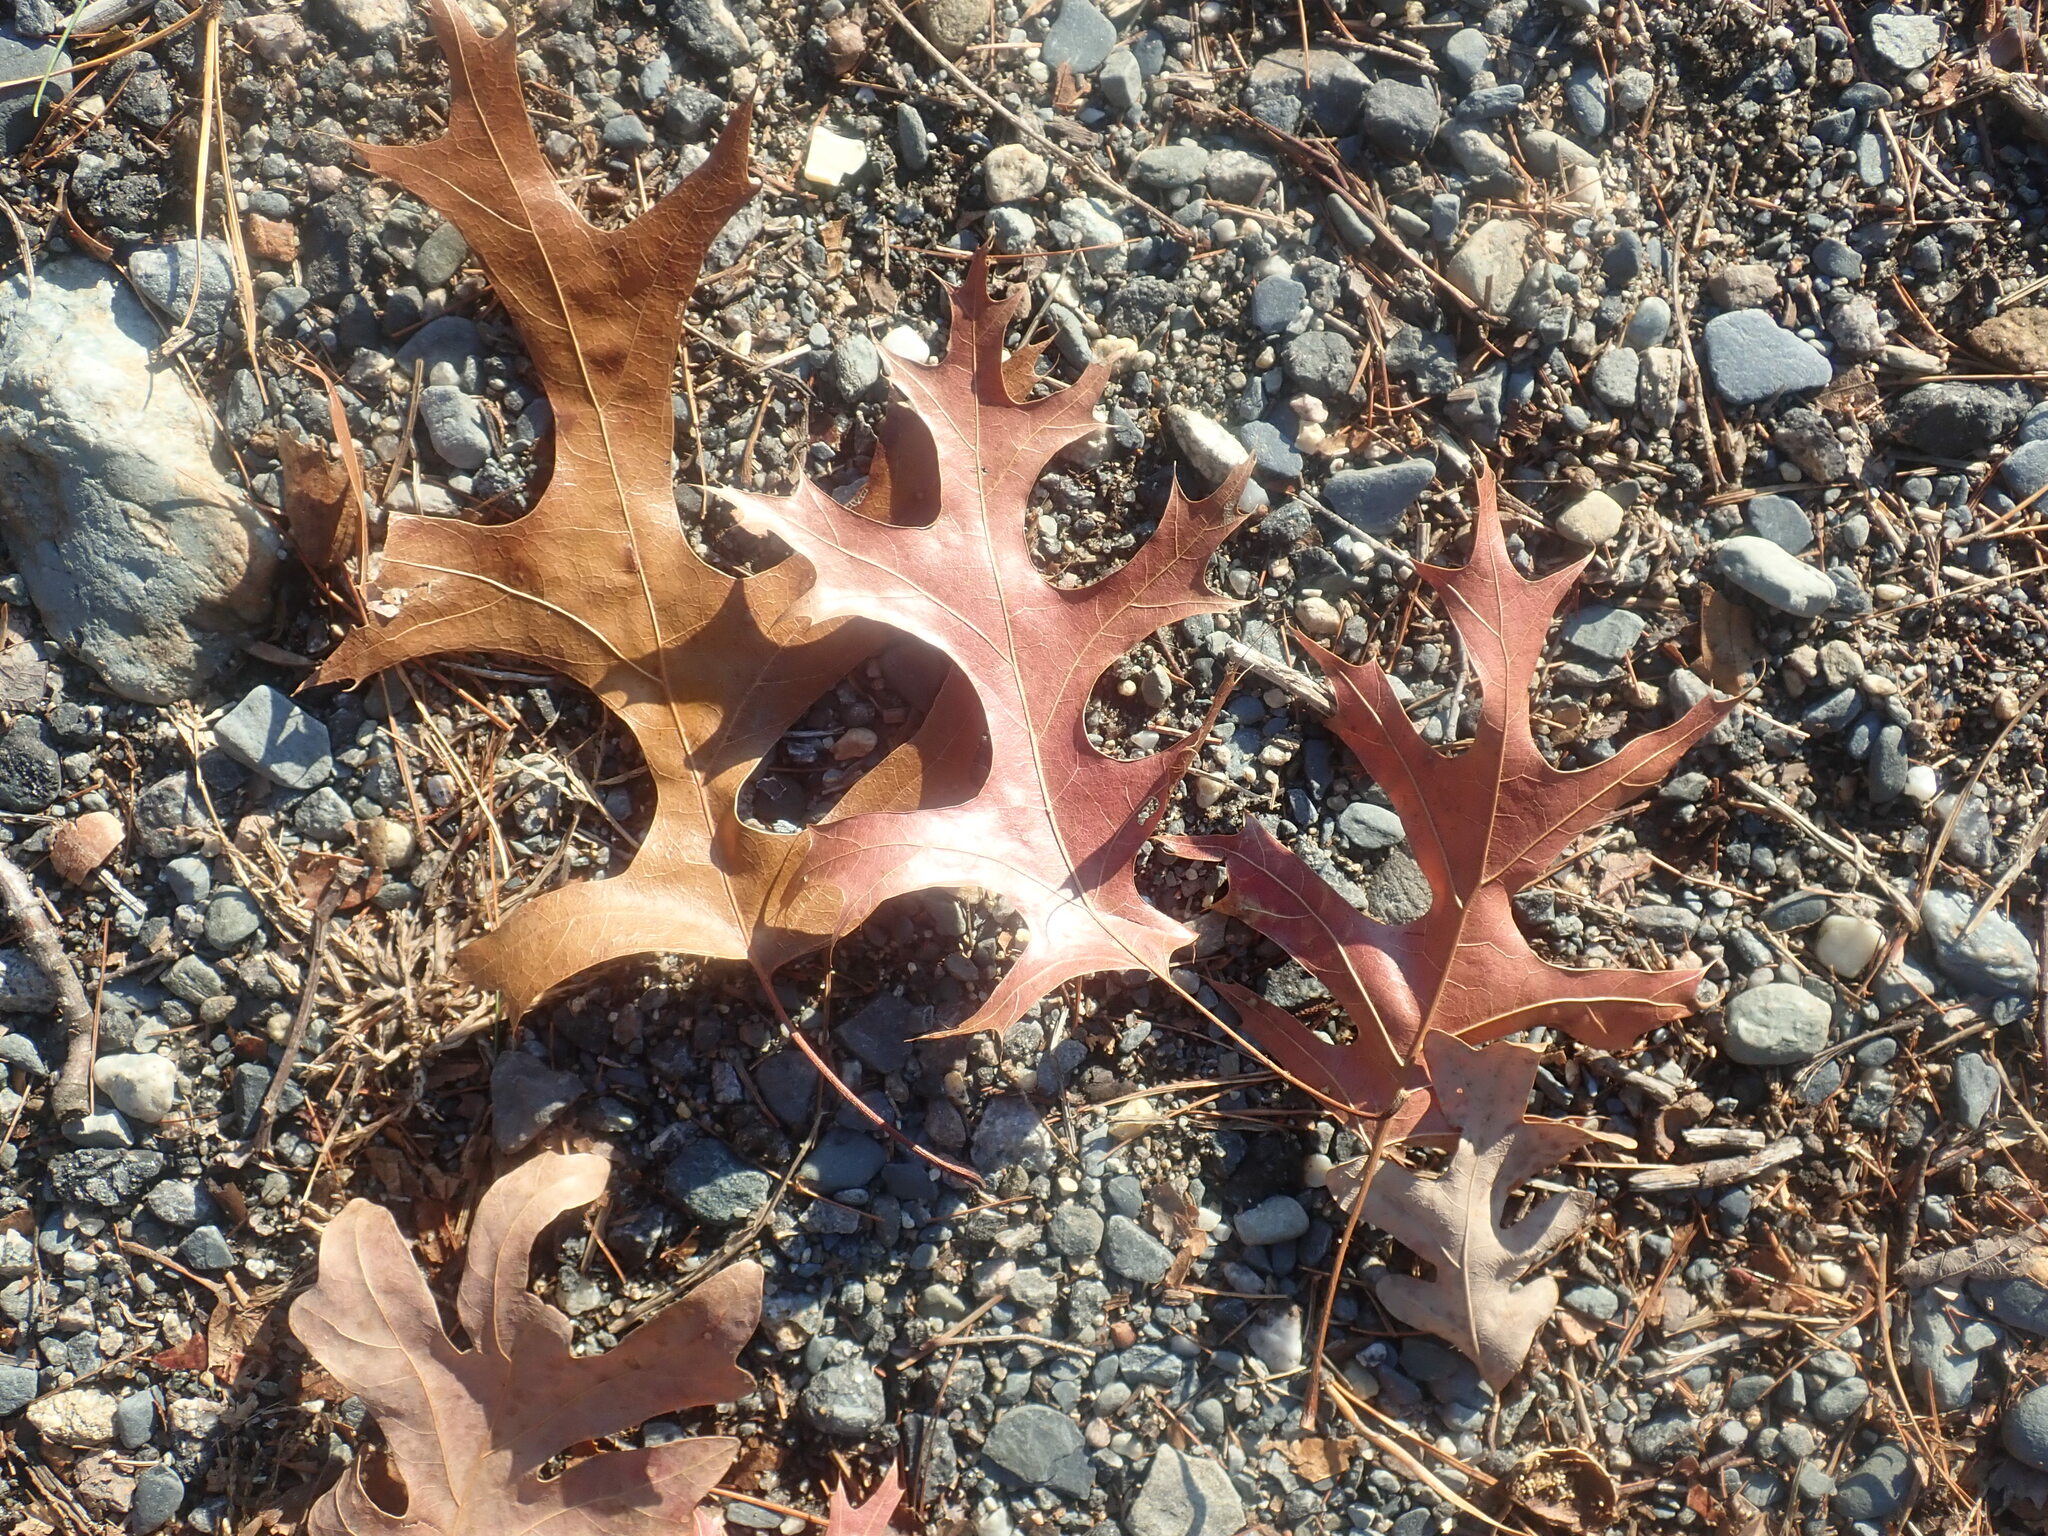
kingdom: Plantae
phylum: Tracheophyta
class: Magnoliopsida
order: Fagales
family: Fagaceae
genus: Quercus
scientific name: Quercus coccinea
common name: Scarlet oak
